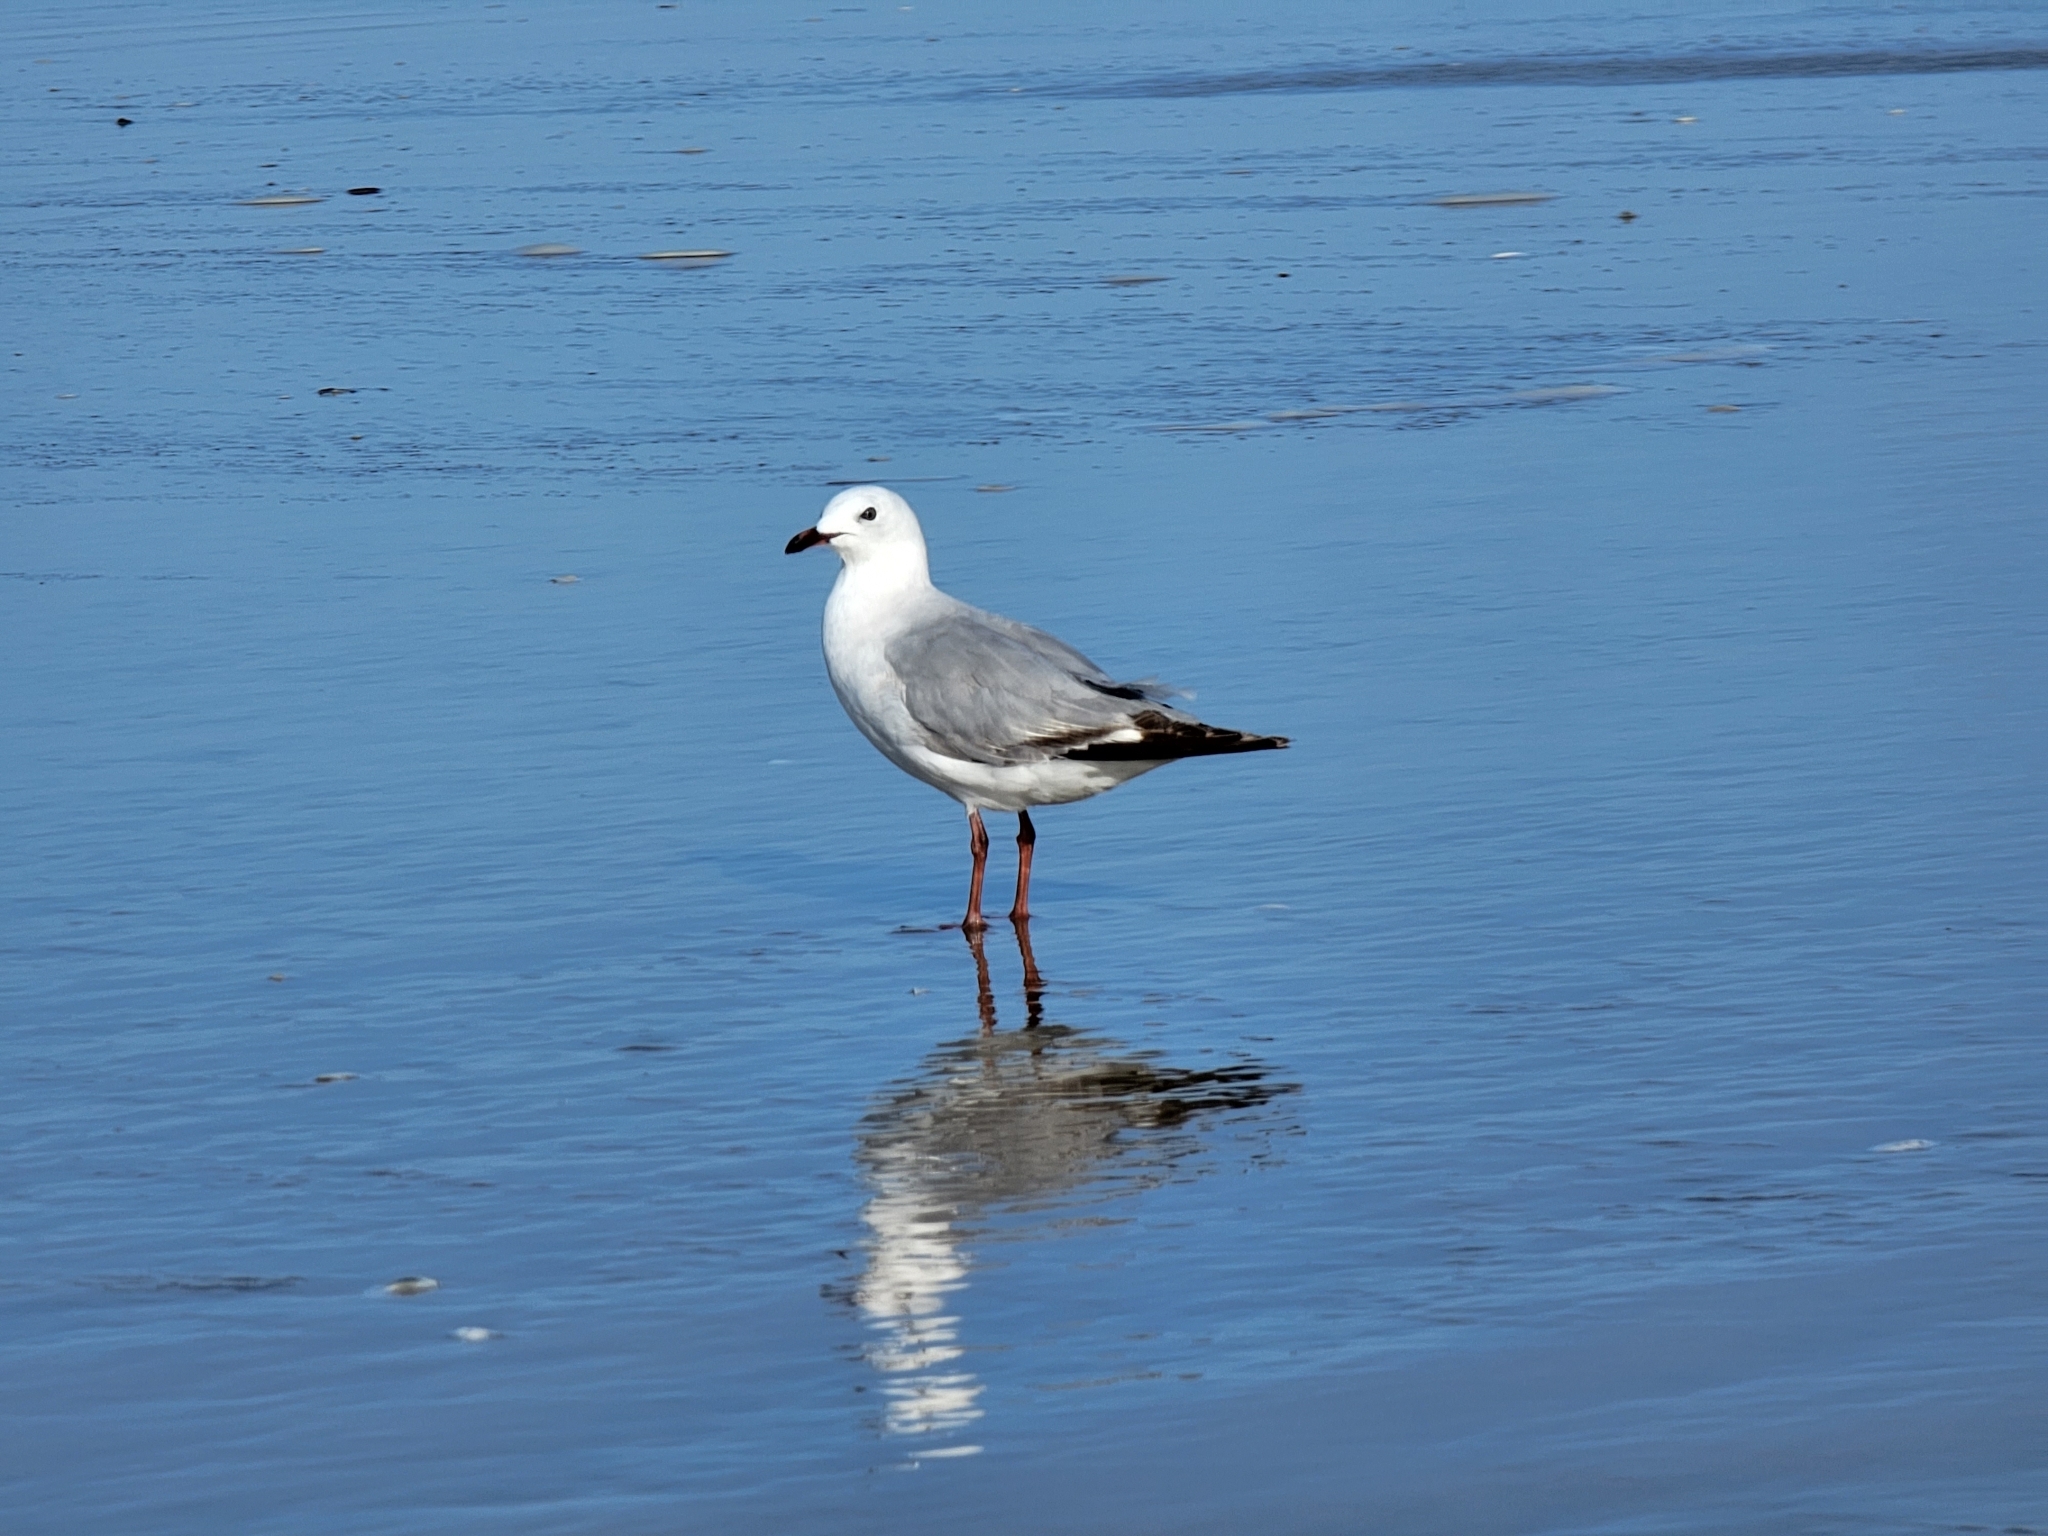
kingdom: Animalia
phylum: Chordata
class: Aves
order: Charadriiformes
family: Laridae
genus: Chroicocephalus
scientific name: Chroicocephalus novaehollandiae
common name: Silver gull
